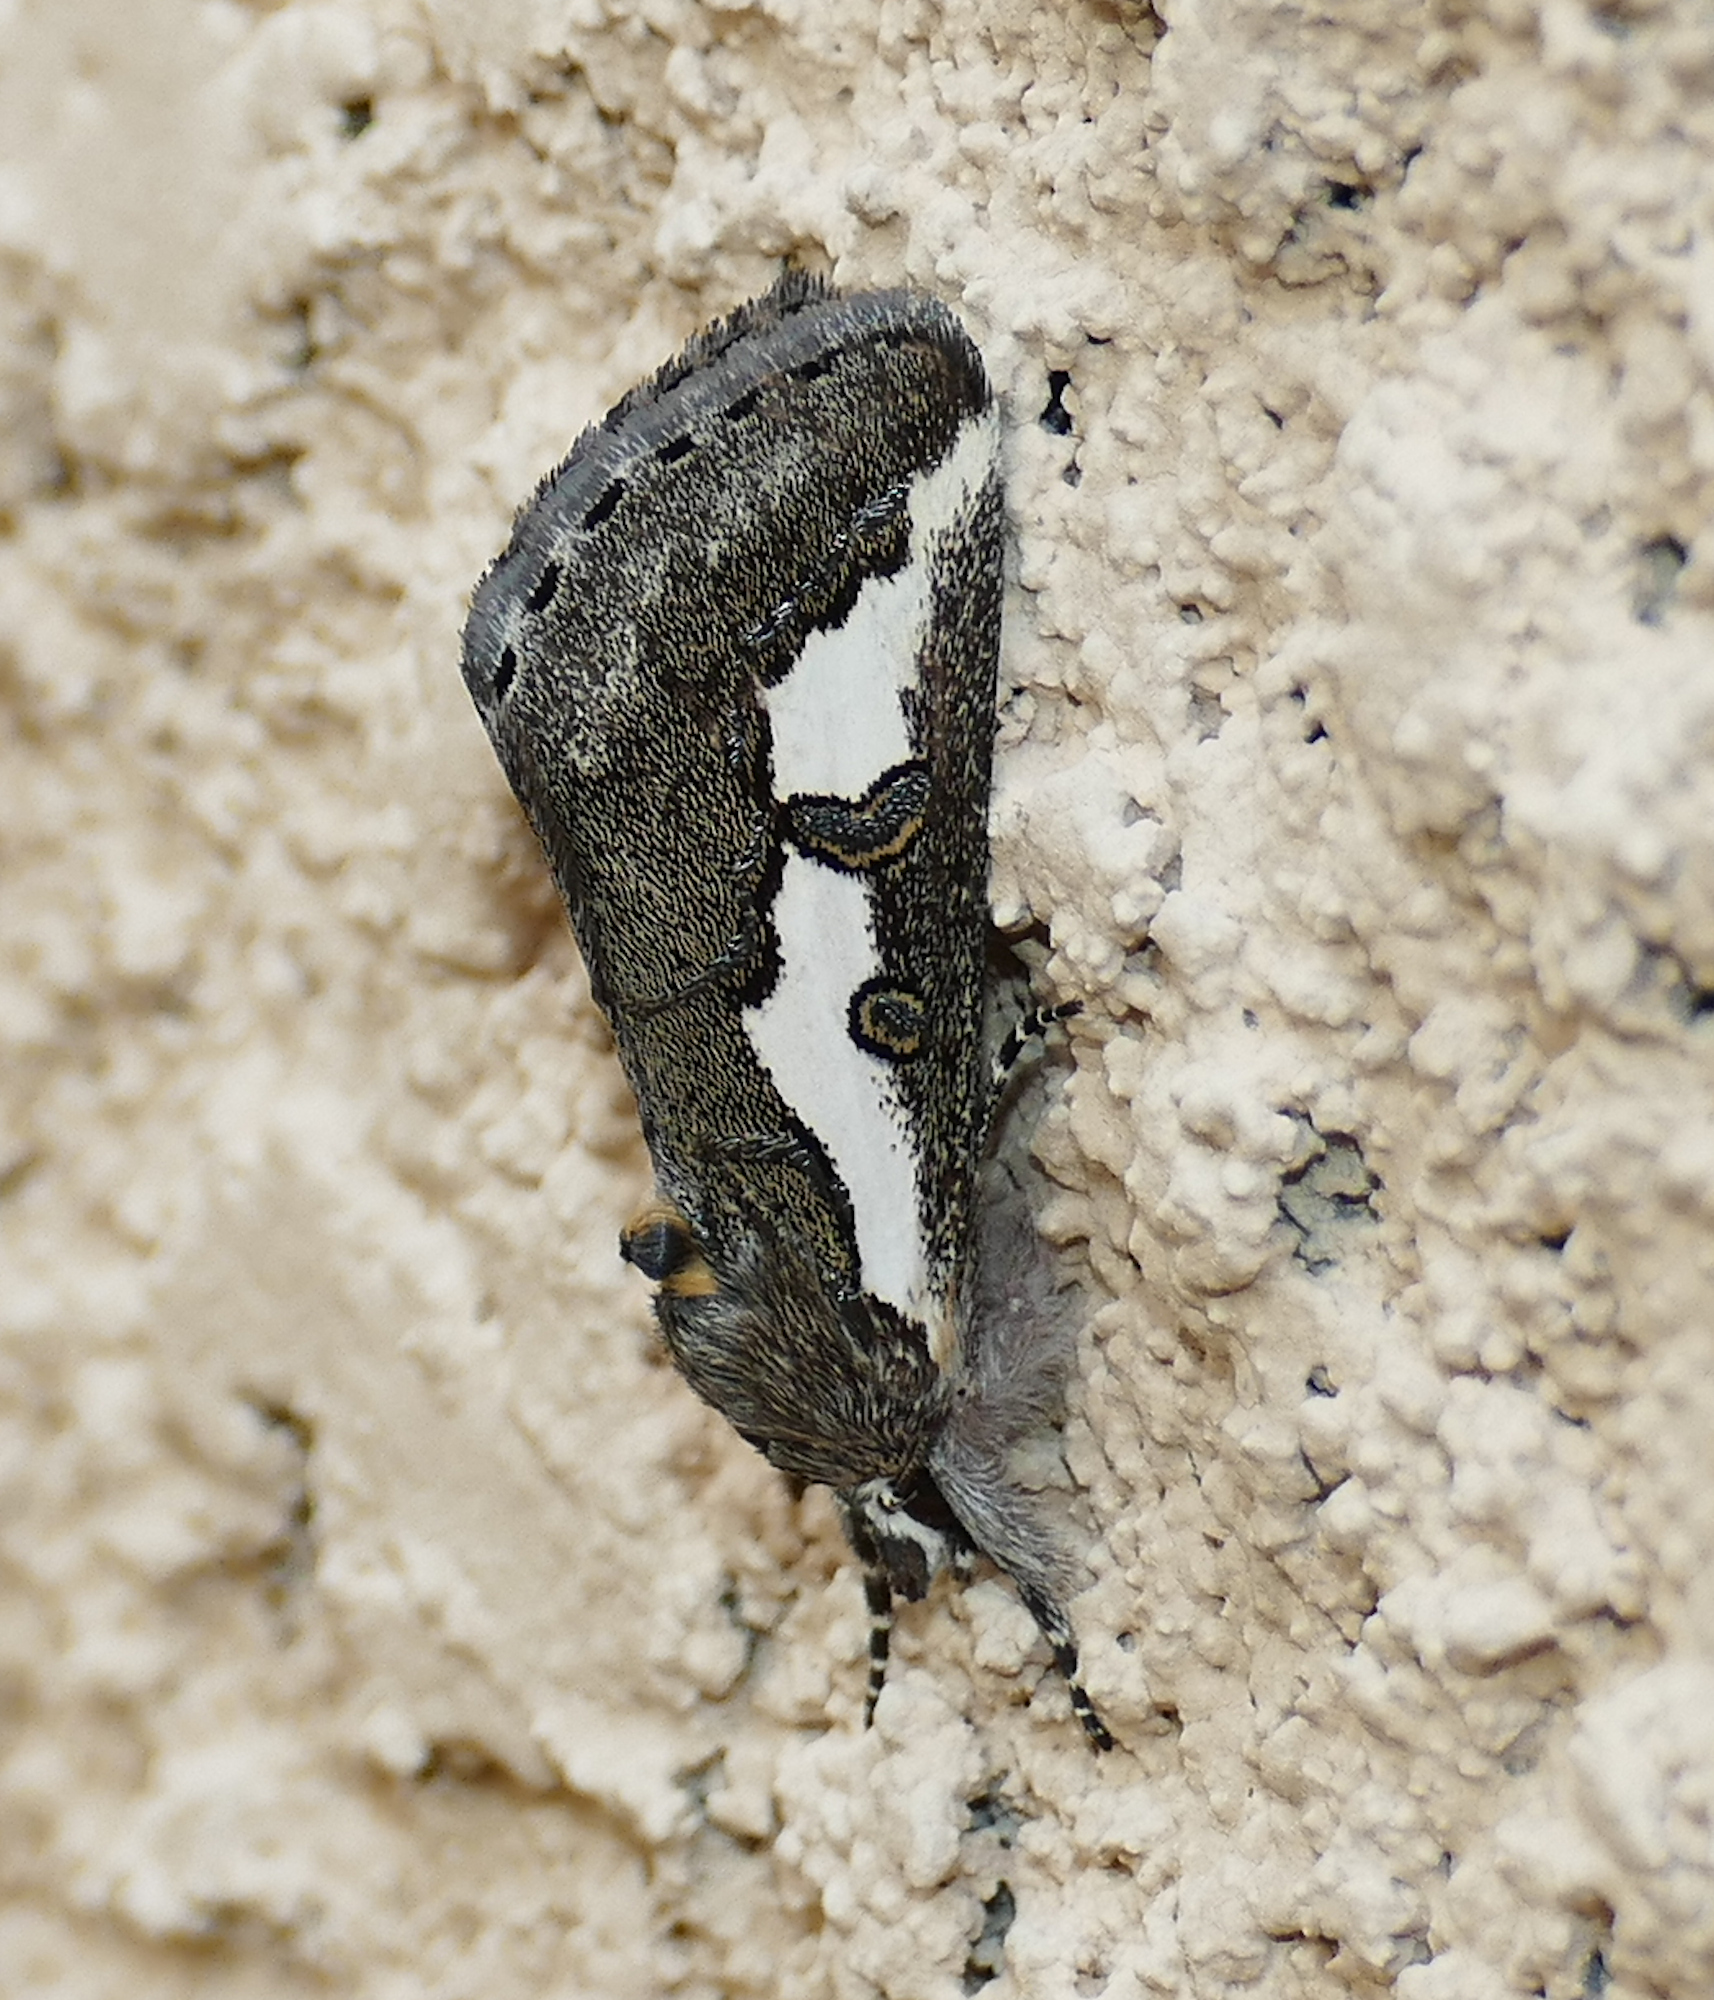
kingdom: Animalia
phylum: Arthropoda
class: Insecta
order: Lepidoptera
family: Noctuidae
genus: Euscirrhopterus
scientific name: Euscirrhopterus gloveri
